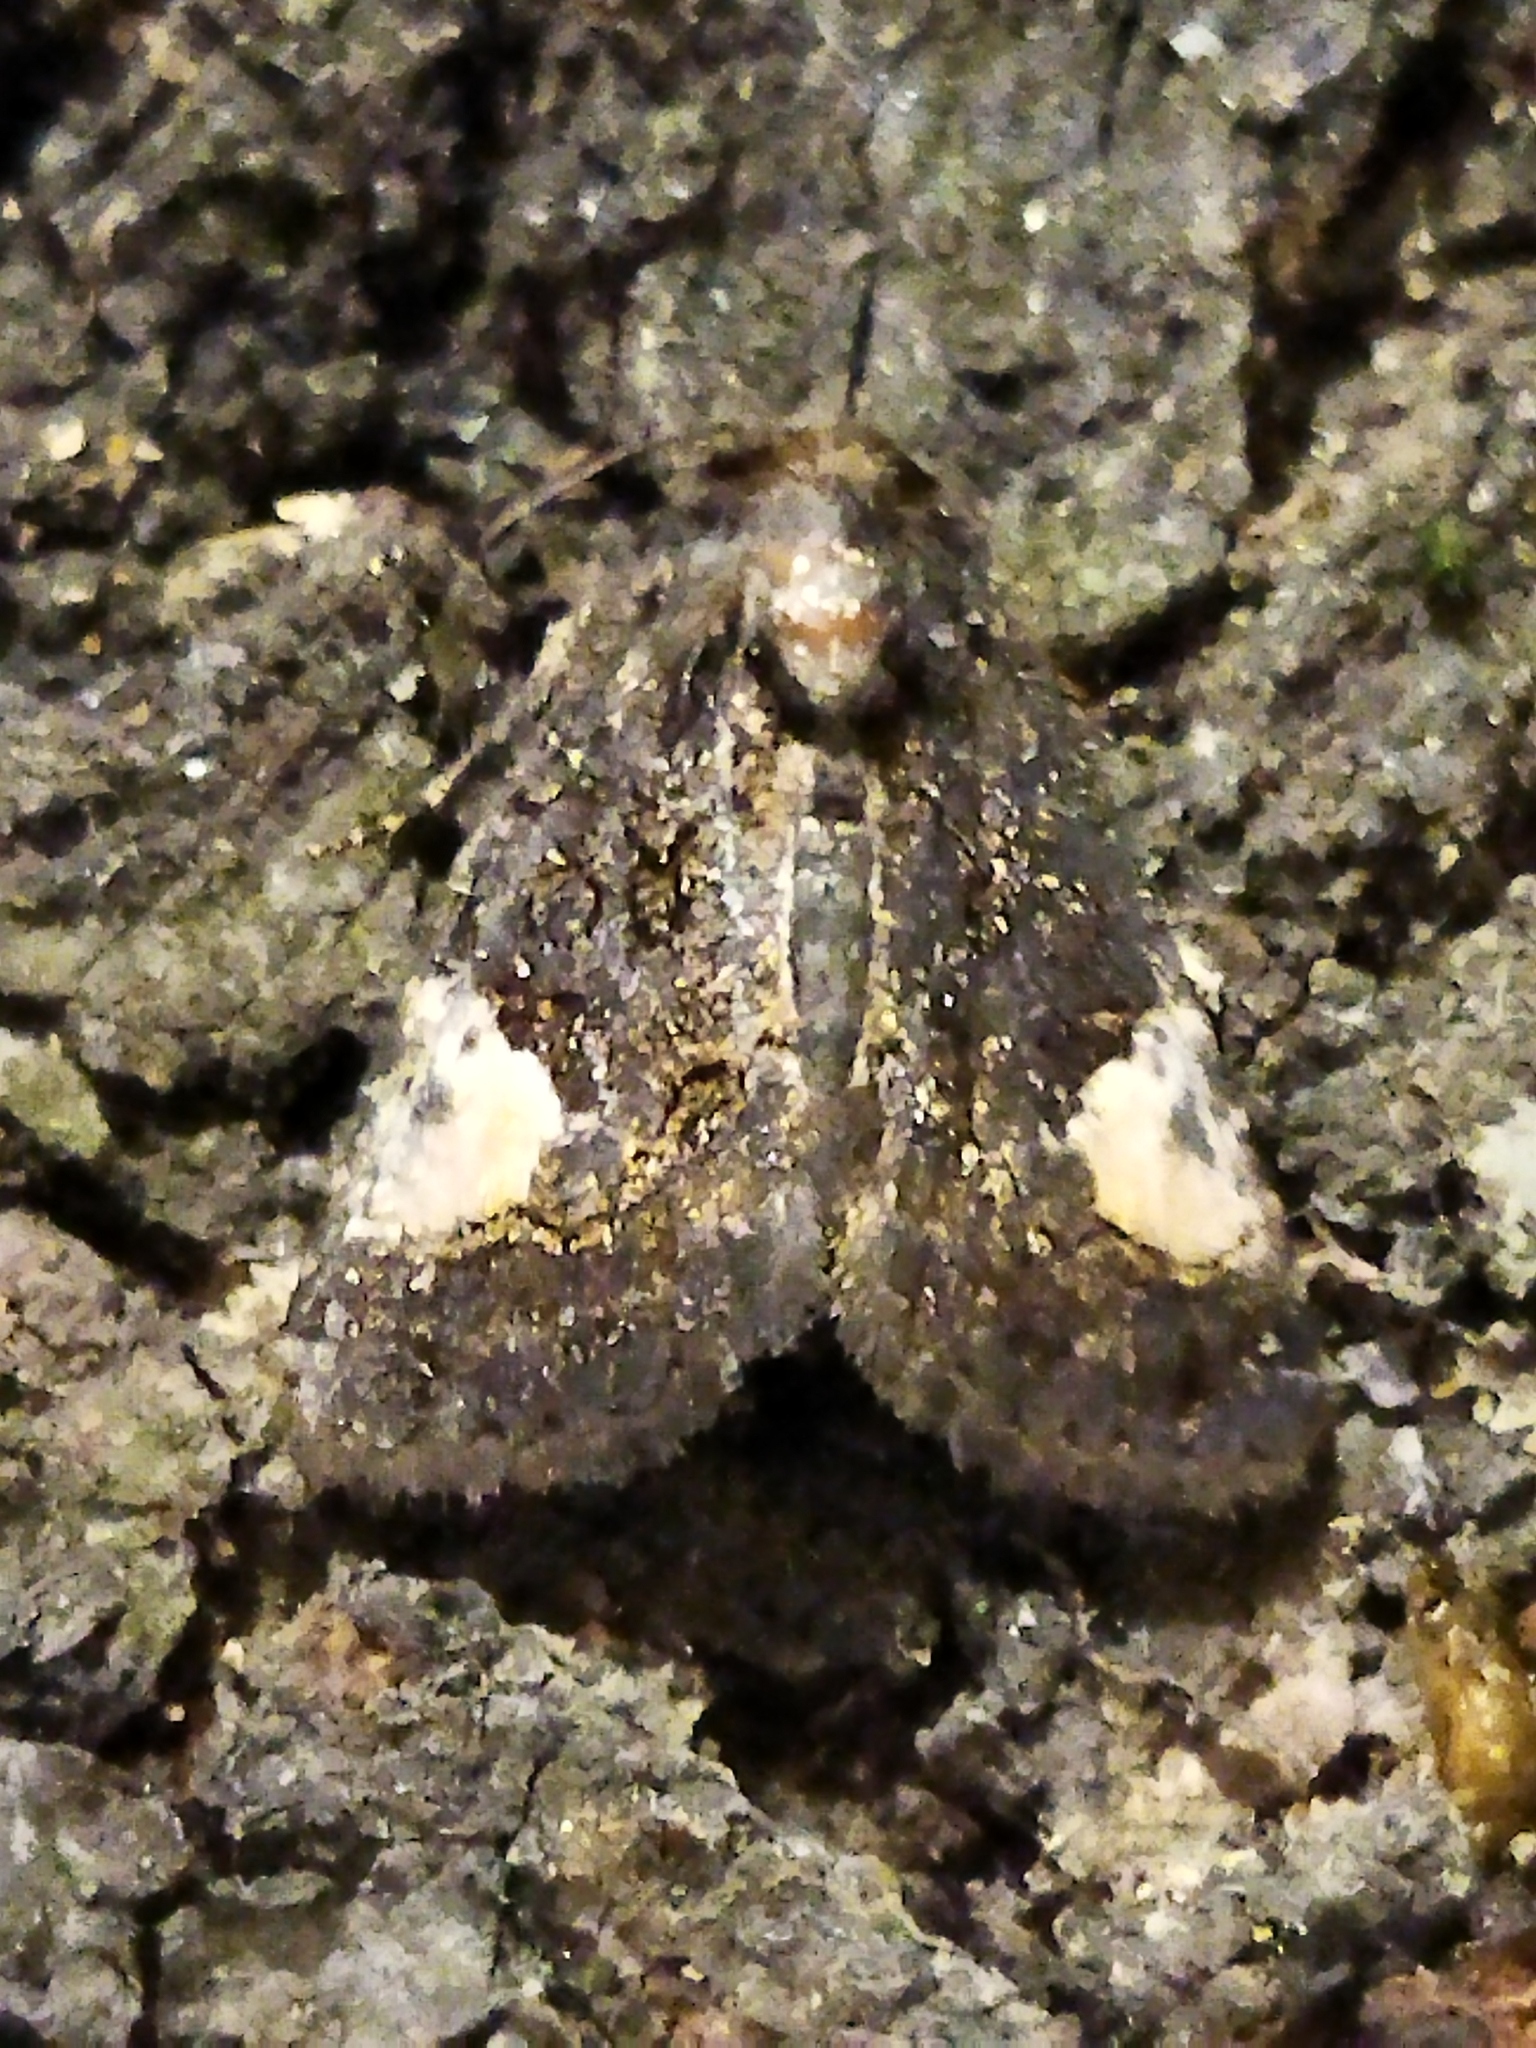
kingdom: Animalia
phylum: Arthropoda
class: Insecta
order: Lepidoptera
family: Noctuidae
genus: Aedia
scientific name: Aedia funesta
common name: The druid
